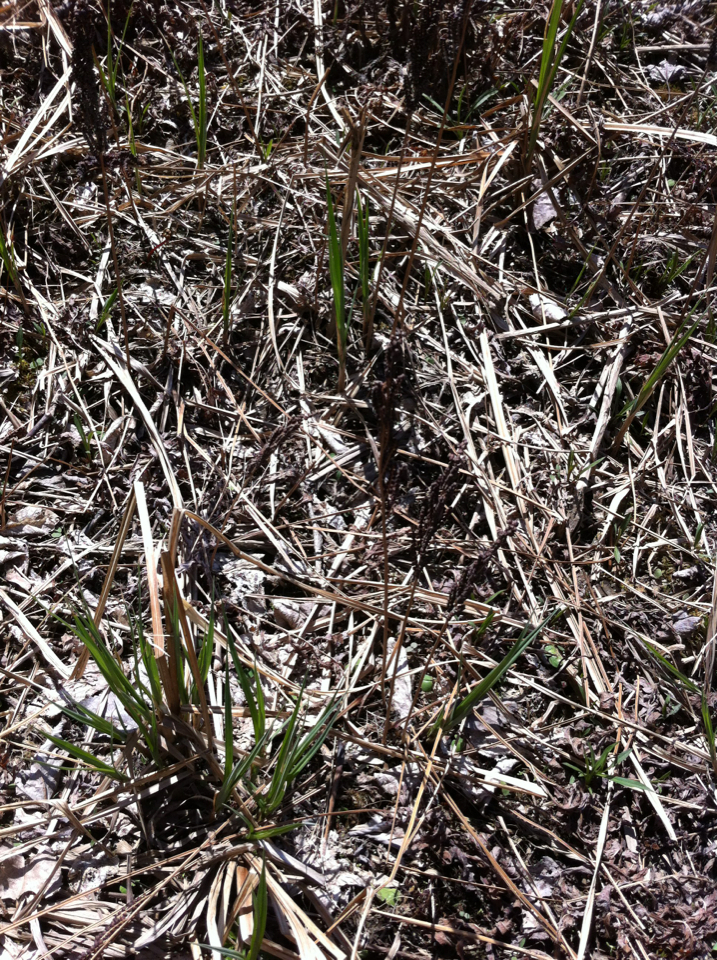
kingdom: Plantae
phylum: Tracheophyta
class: Polypodiopsida
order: Polypodiales
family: Onocleaceae
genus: Onoclea
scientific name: Onoclea sensibilis
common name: Sensitive fern
